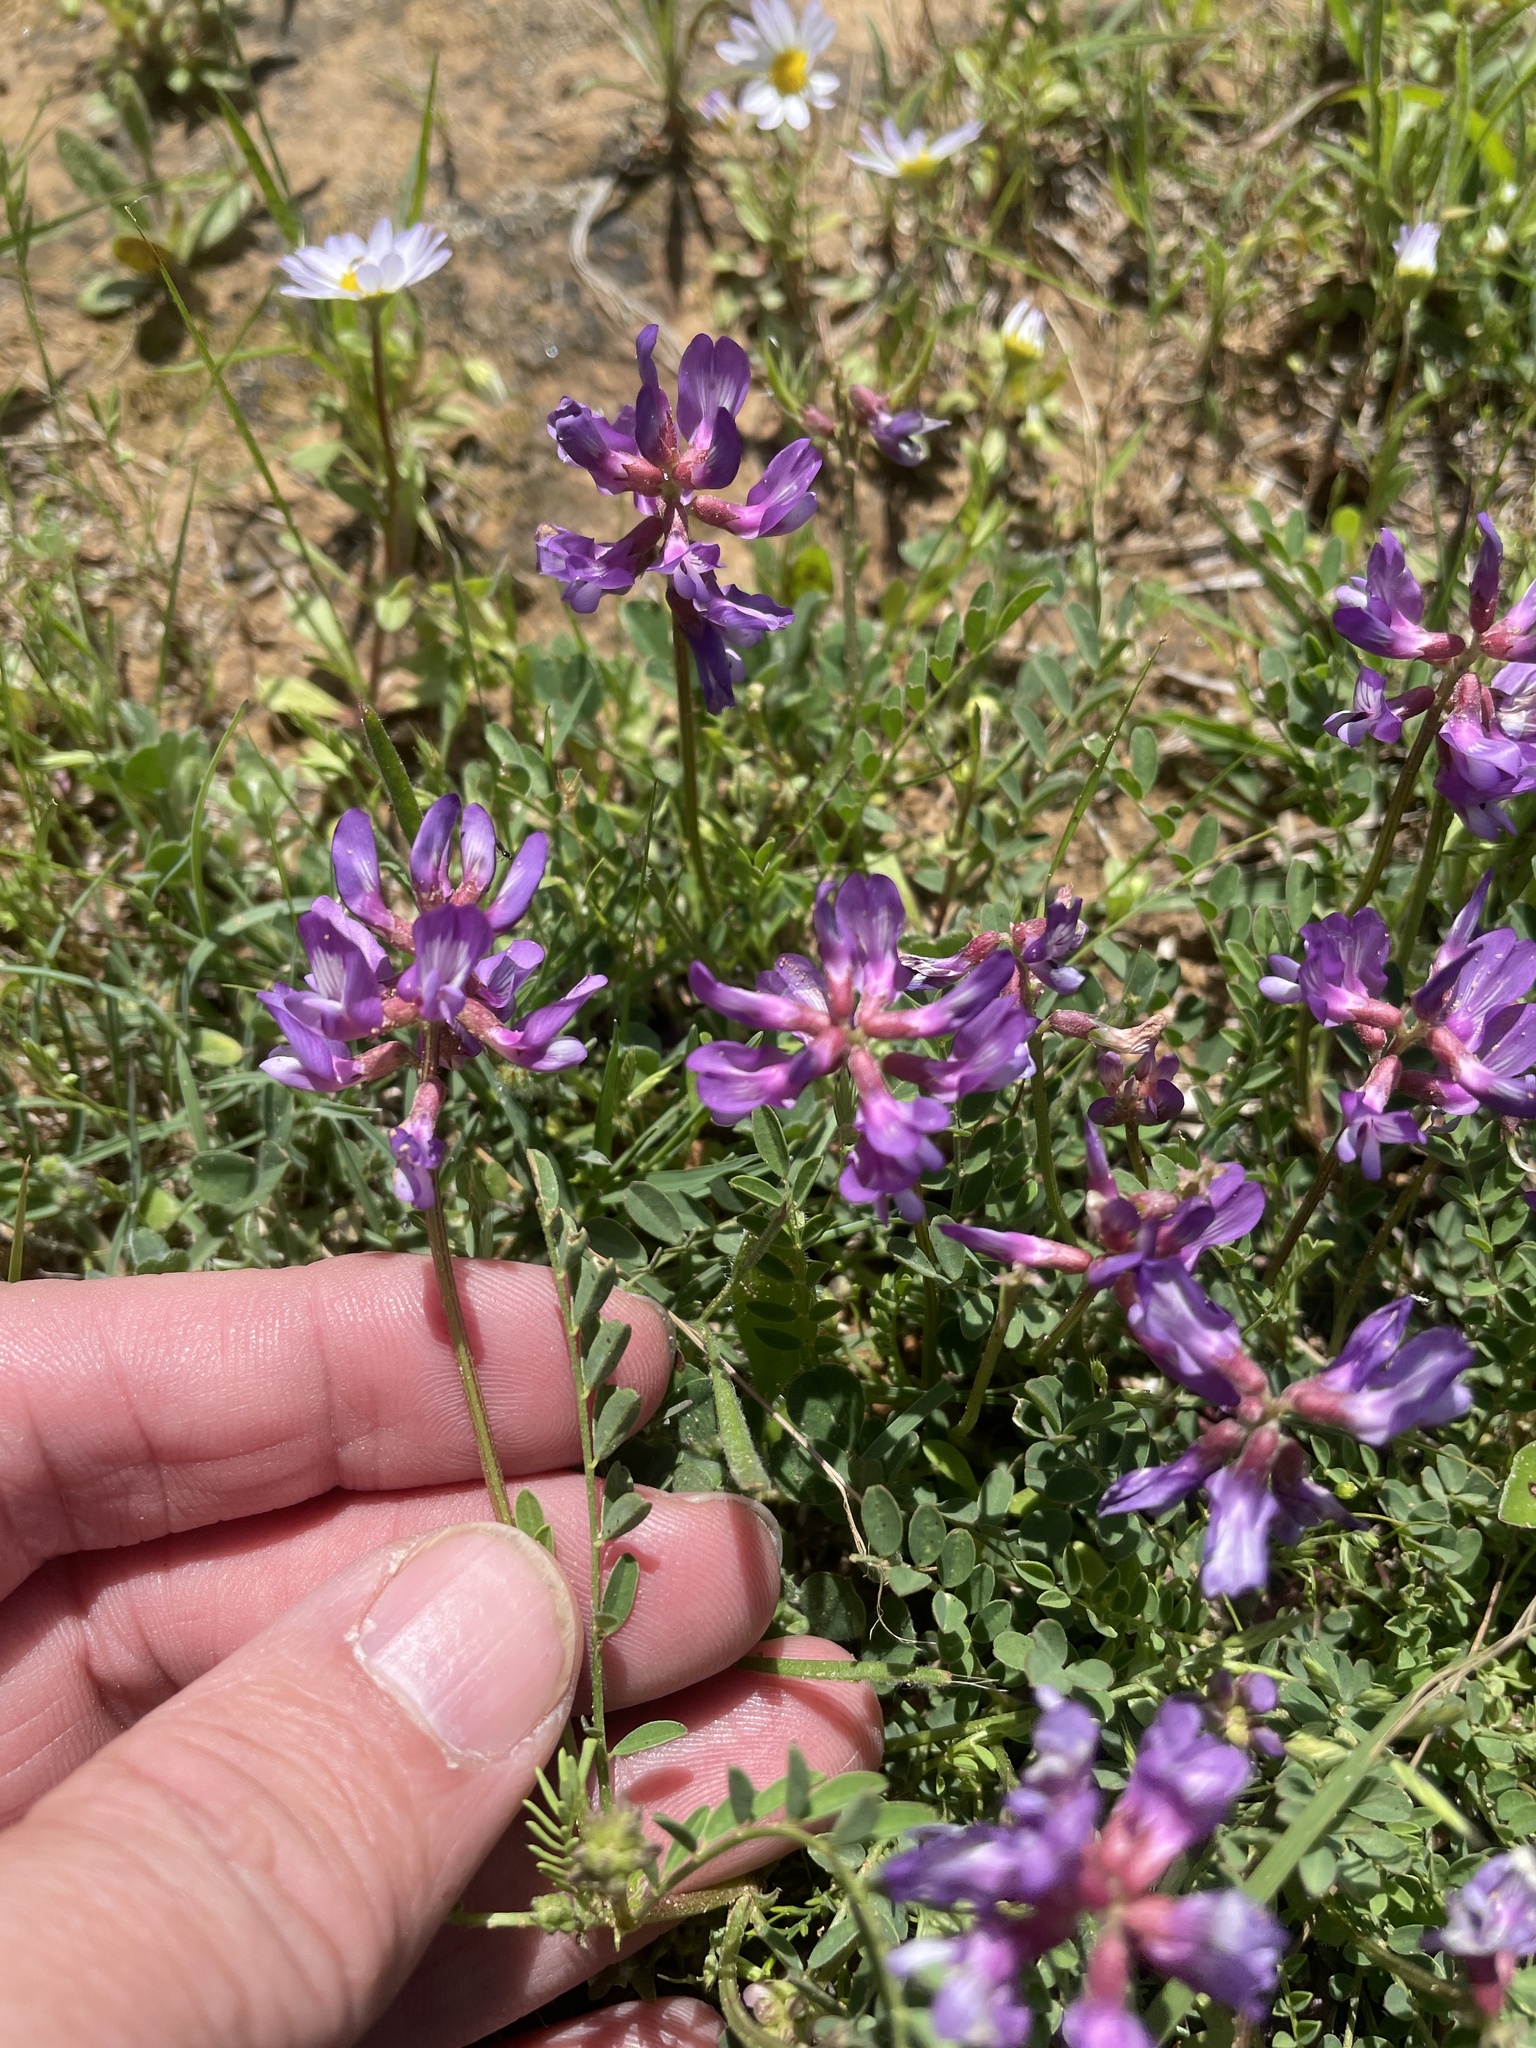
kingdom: Plantae
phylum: Tracheophyta
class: Magnoliopsida
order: Fabales
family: Fabaceae
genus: Astragalus
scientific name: Astragalus distortus
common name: Ozark milk-vetch
